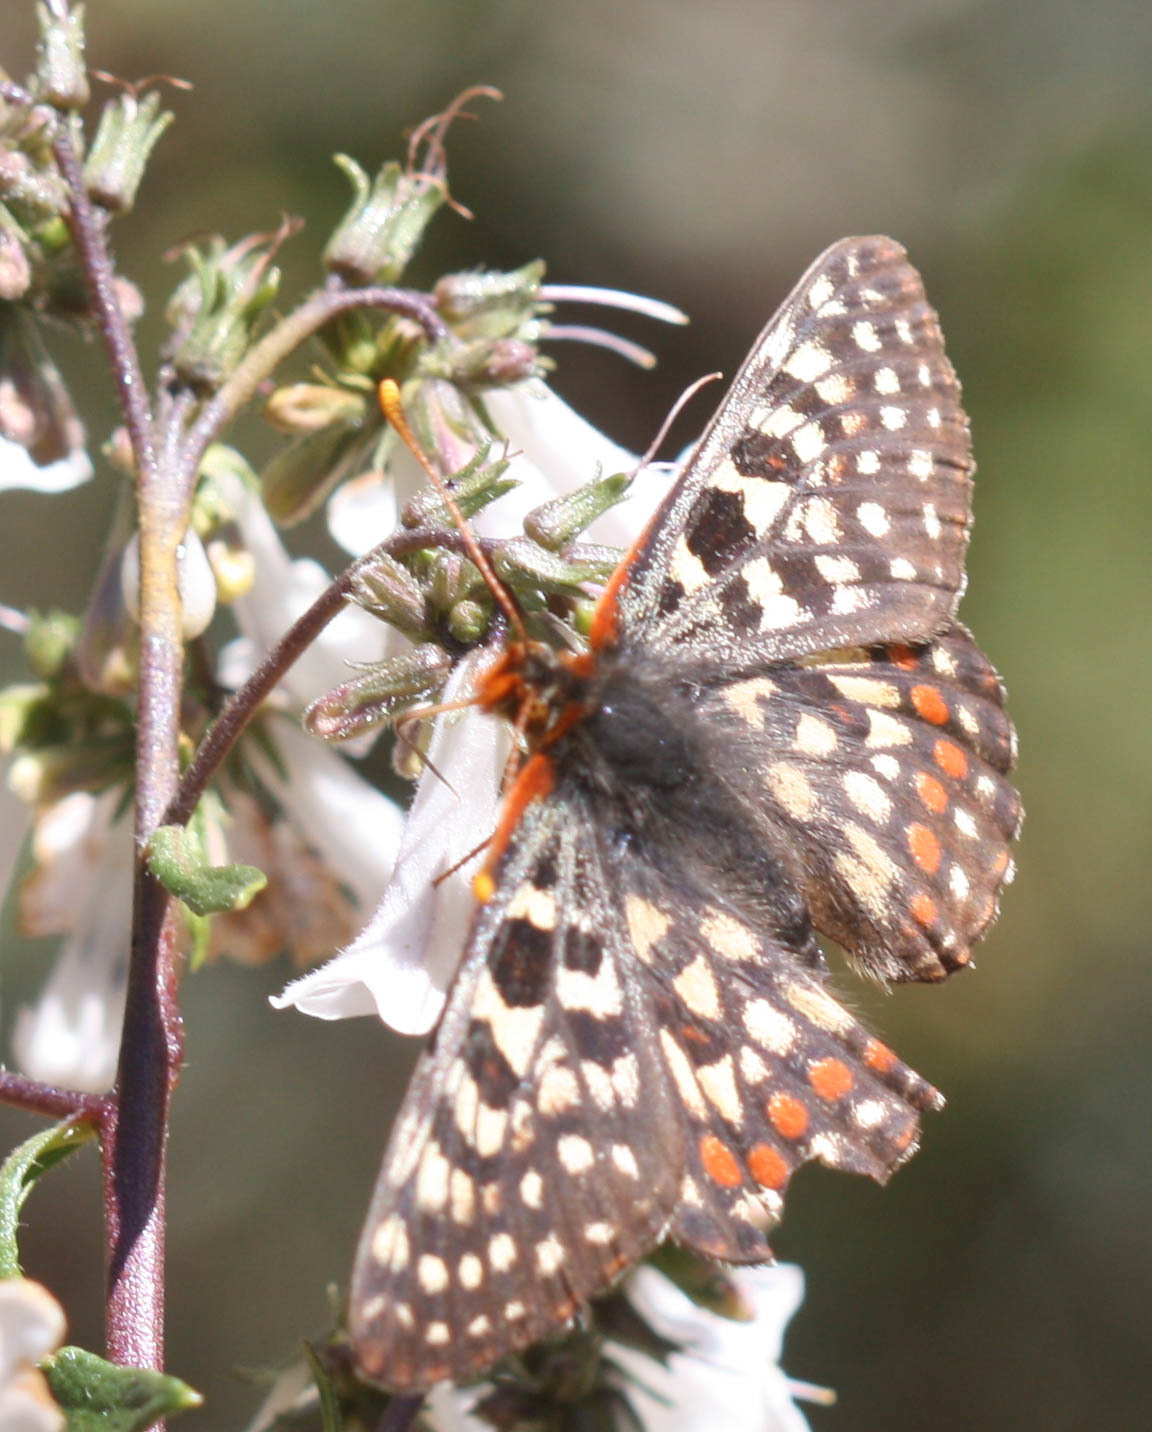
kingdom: Animalia
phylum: Arthropoda
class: Insecta
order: Lepidoptera
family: Nymphalidae
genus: Occidryas
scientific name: Occidryas editha
